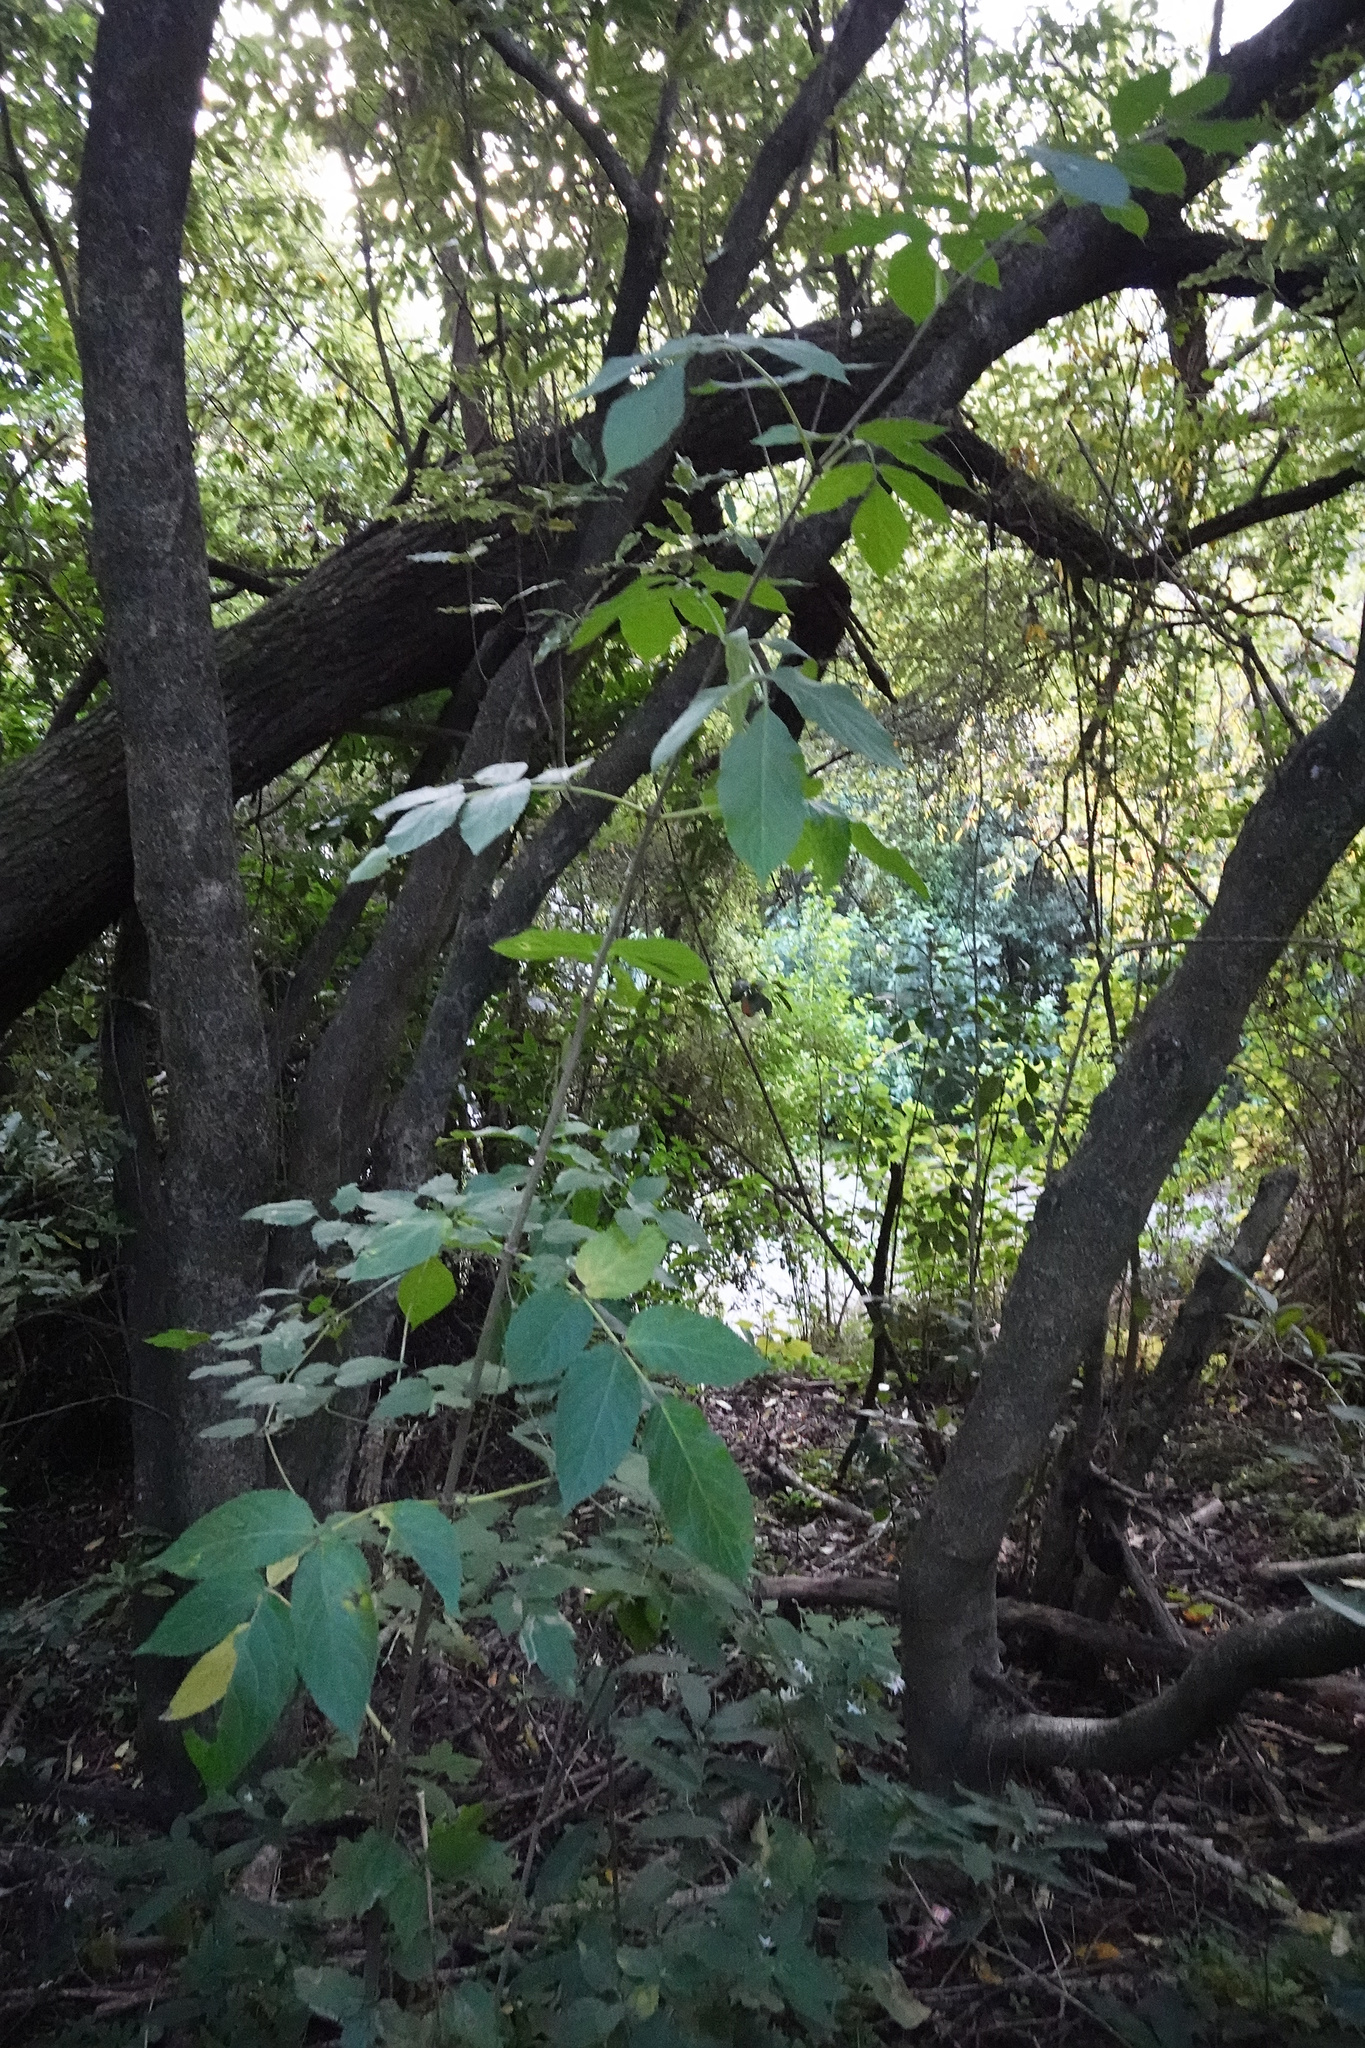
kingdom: Plantae
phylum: Tracheophyta
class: Magnoliopsida
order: Dipsacales
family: Viburnaceae
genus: Sambucus
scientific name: Sambucus nigra
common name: Elder
